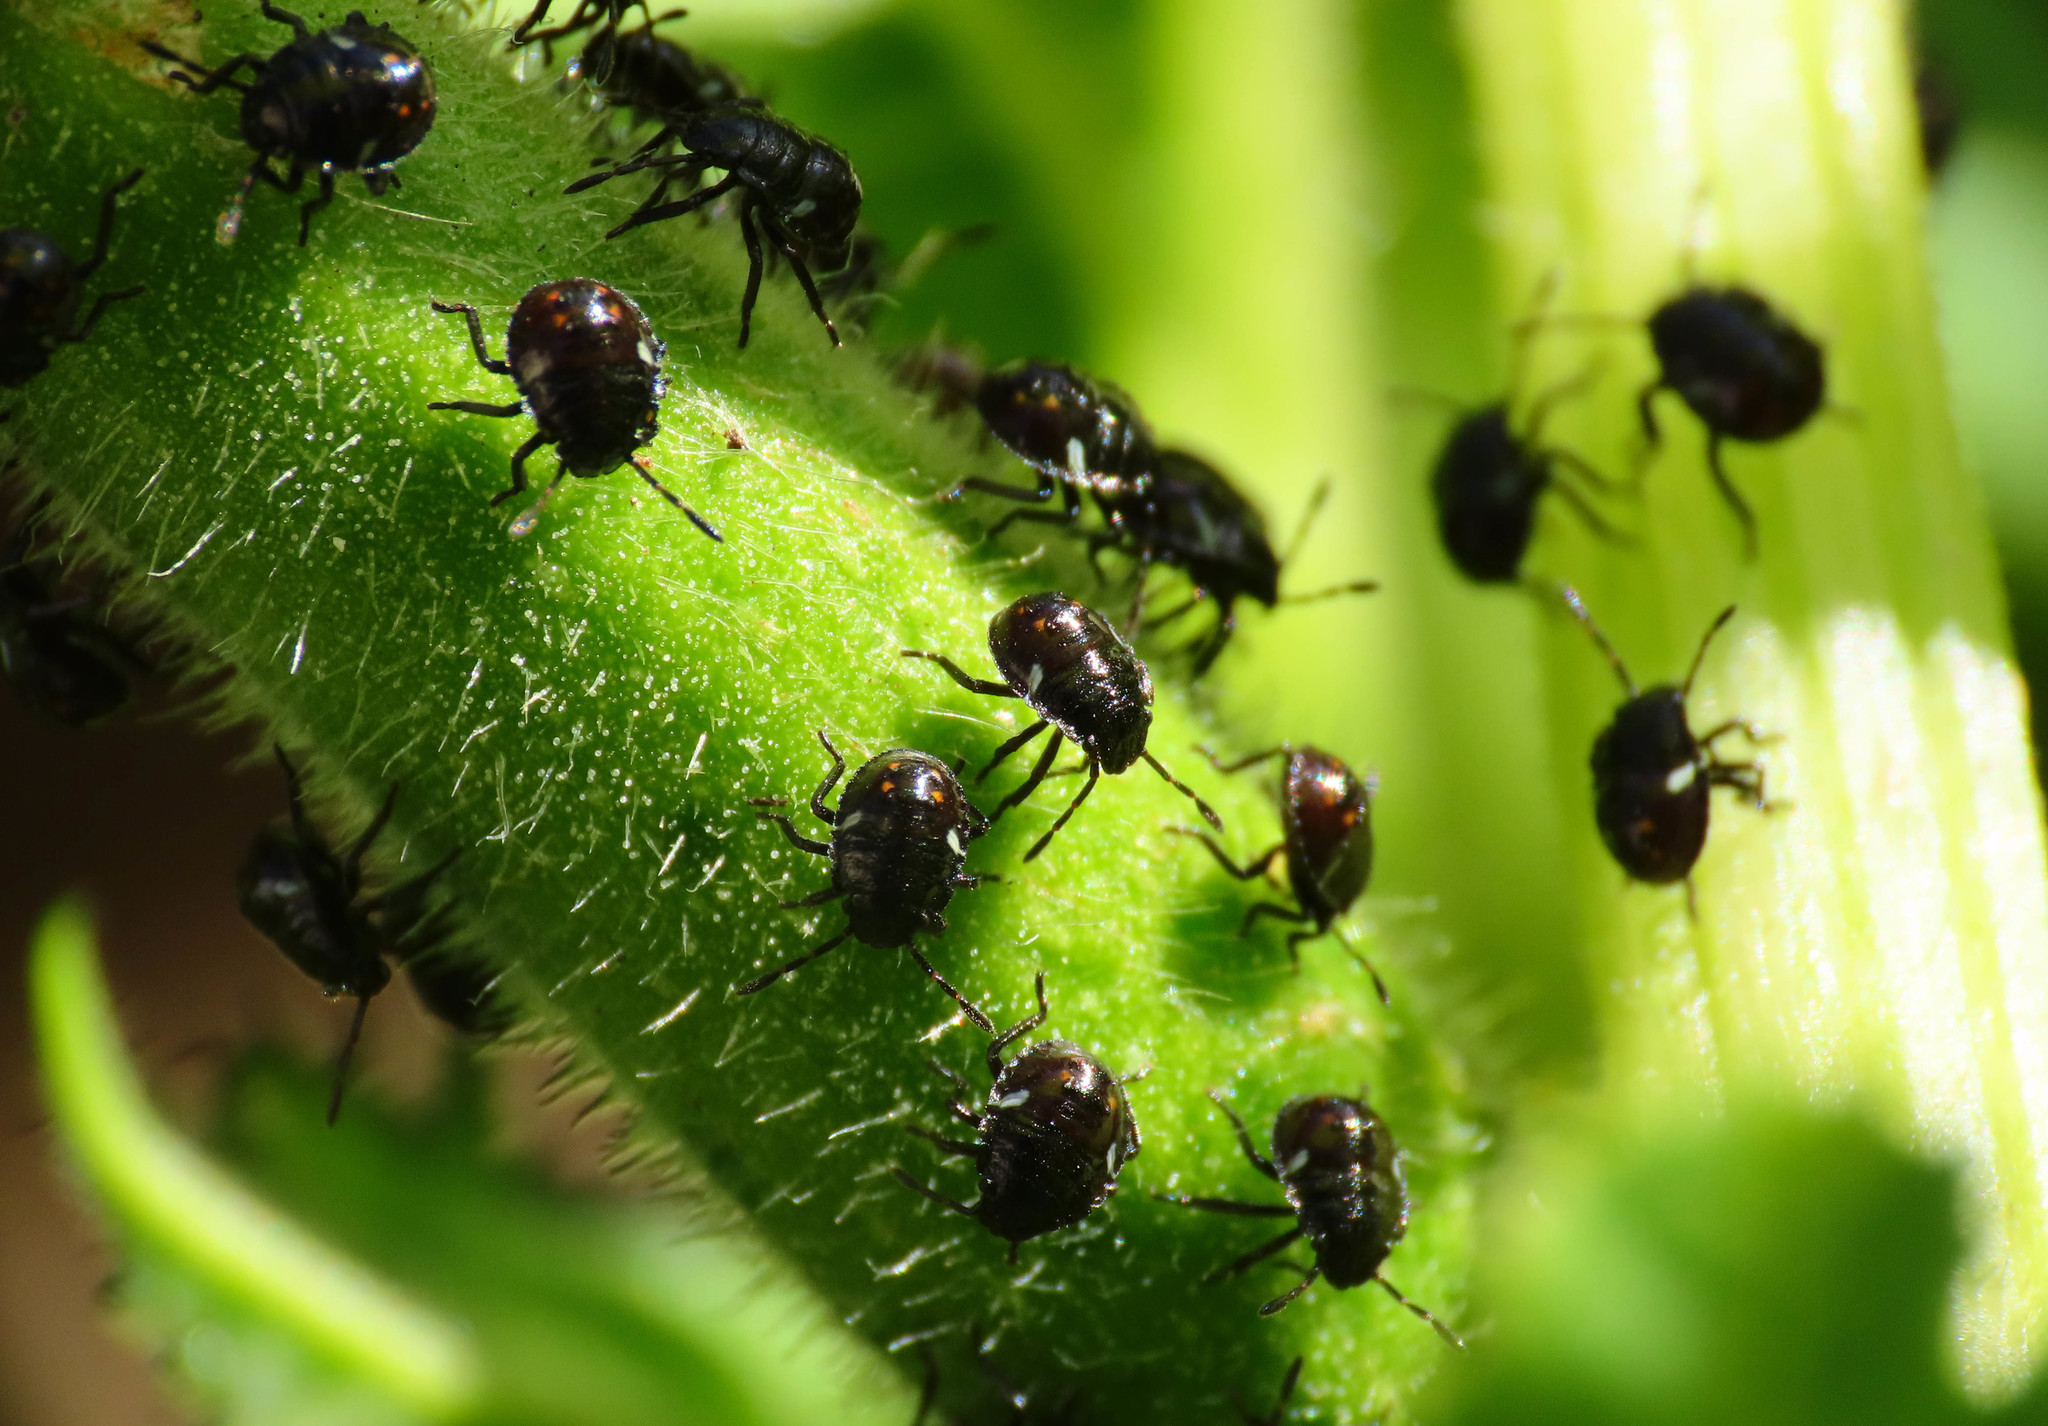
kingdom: Animalia
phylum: Arthropoda
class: Insecta
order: Hemiptera
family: Pentatomidae
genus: Nezara
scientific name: Nezara viridula
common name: Southern green stink bug
